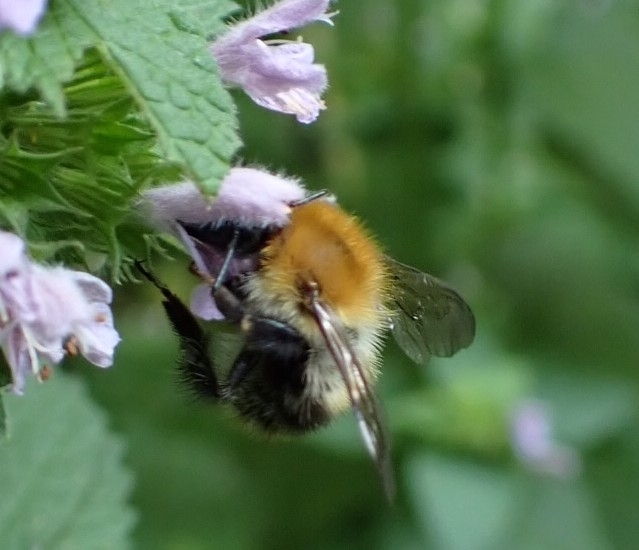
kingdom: Animalia
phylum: Arthropoda
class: Insecta
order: Hymenoptera
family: Apidae
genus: Bombus
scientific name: Bombus pascuorum
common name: Common carder bee
